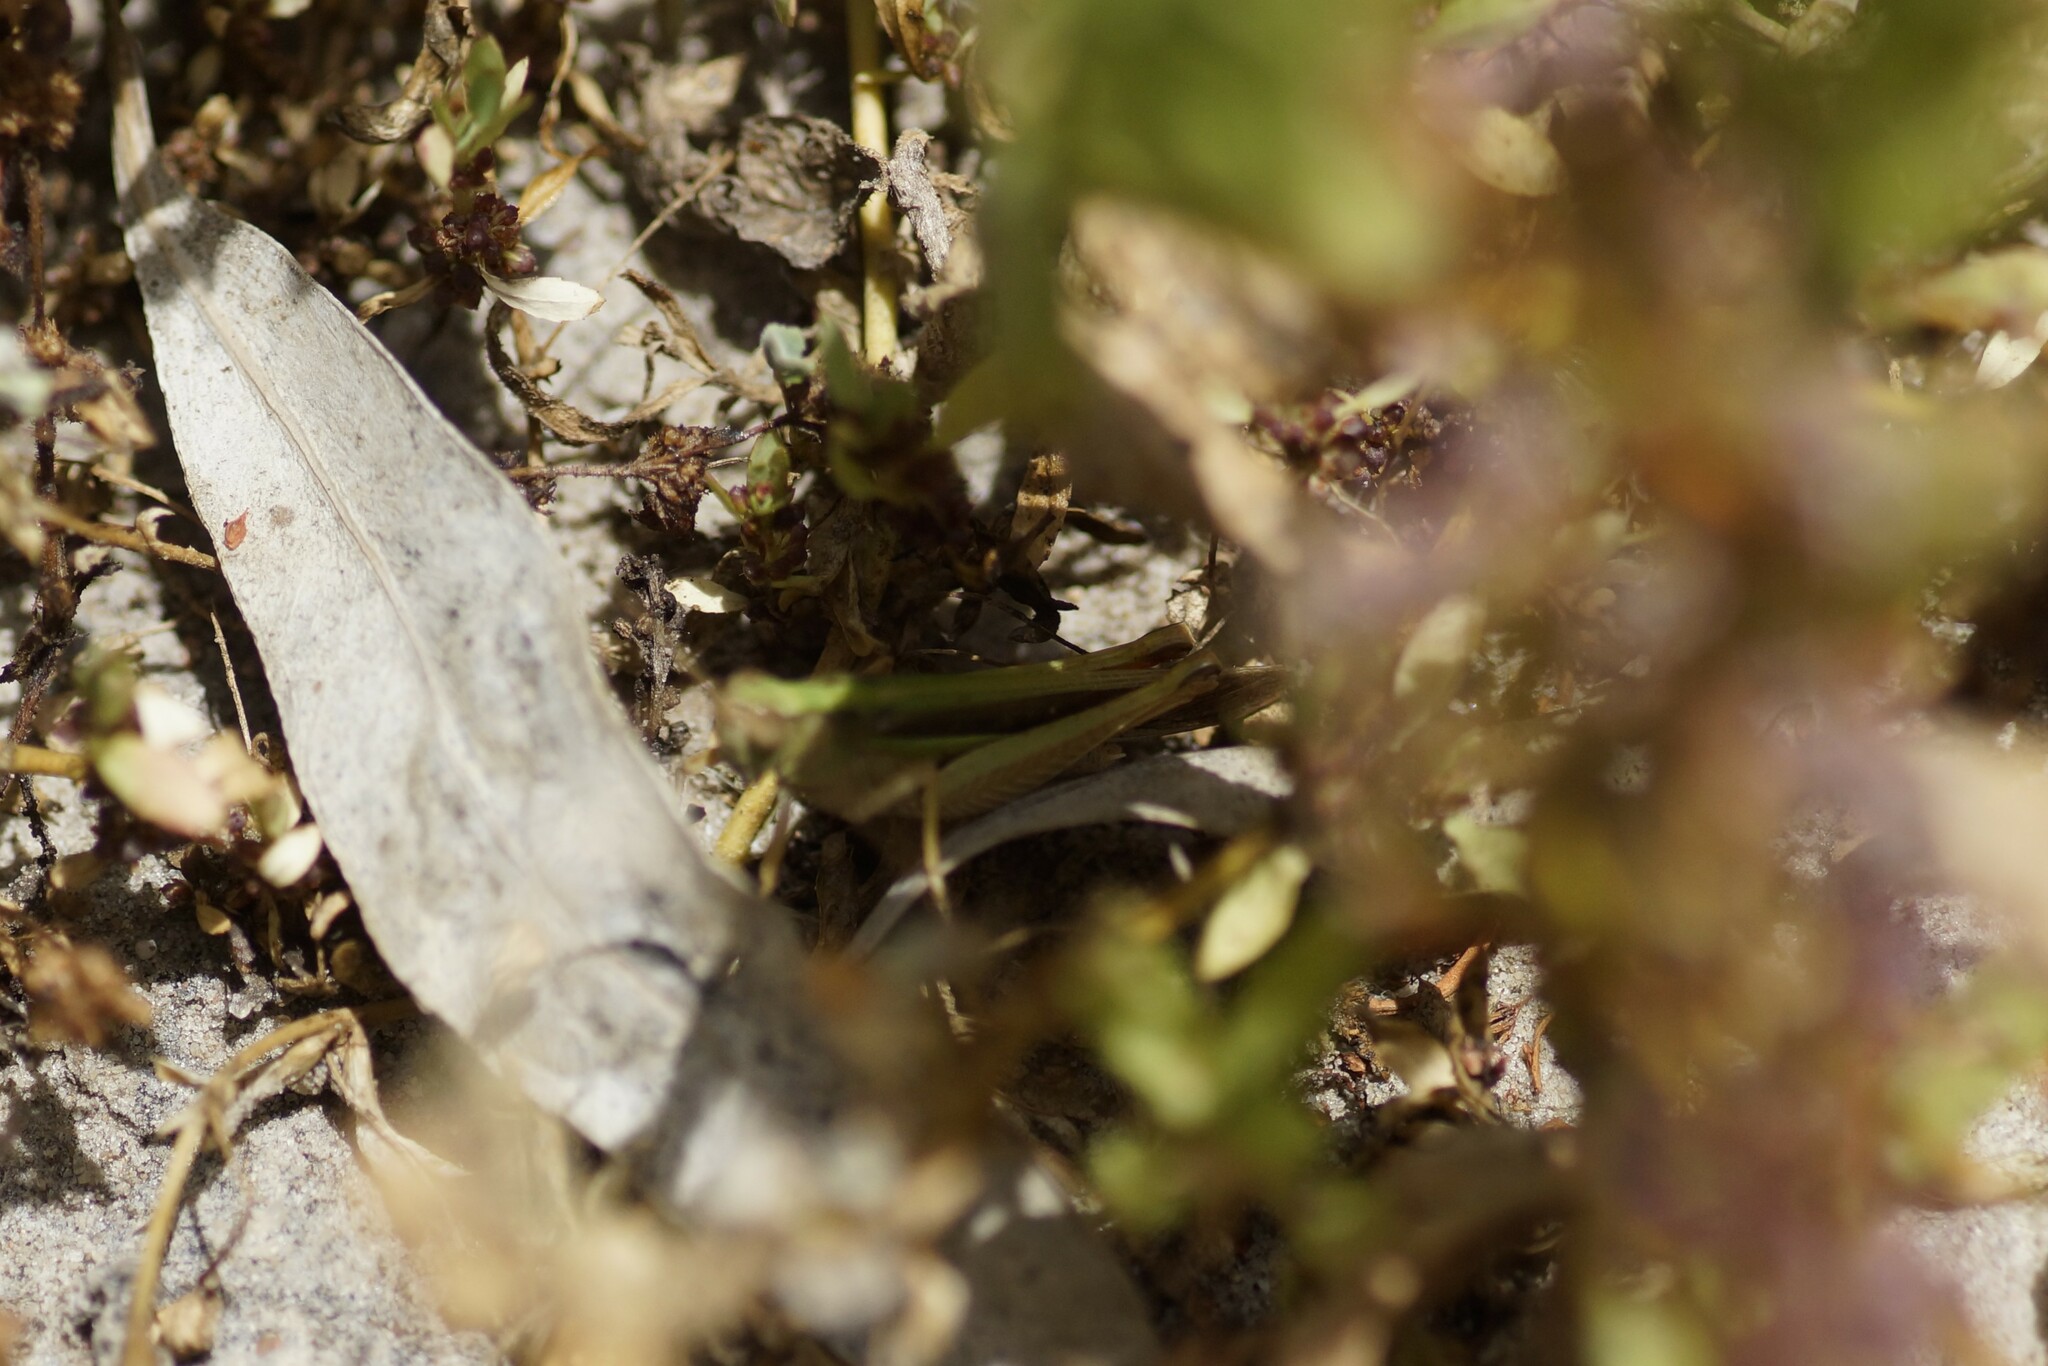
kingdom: Animalia
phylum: Arthropoda
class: Insecta
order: Orthoptera
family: Acrididae
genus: Schizobothrus
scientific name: Schizobothrus flavovittatus
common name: Disappearing grasshopper
